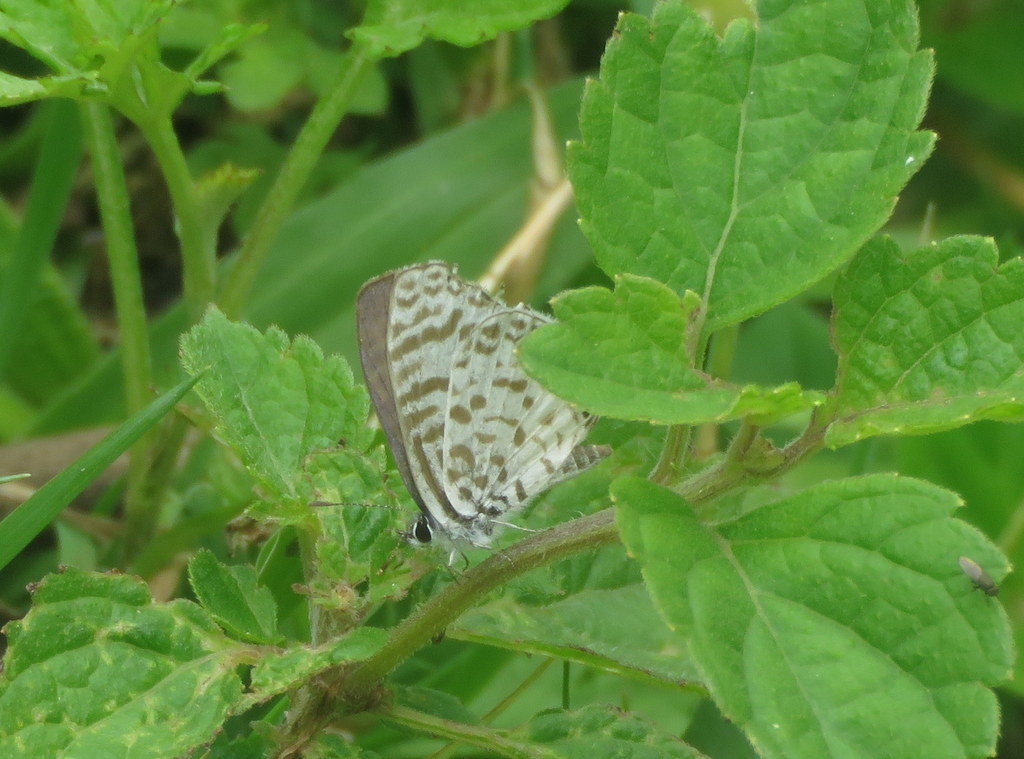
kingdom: Animalia
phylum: Arthropoda
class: Insecta
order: Lepidoptera
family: Lycaenidae
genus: Leptotes
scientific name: Leptotes cassius
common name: Cassius blue
